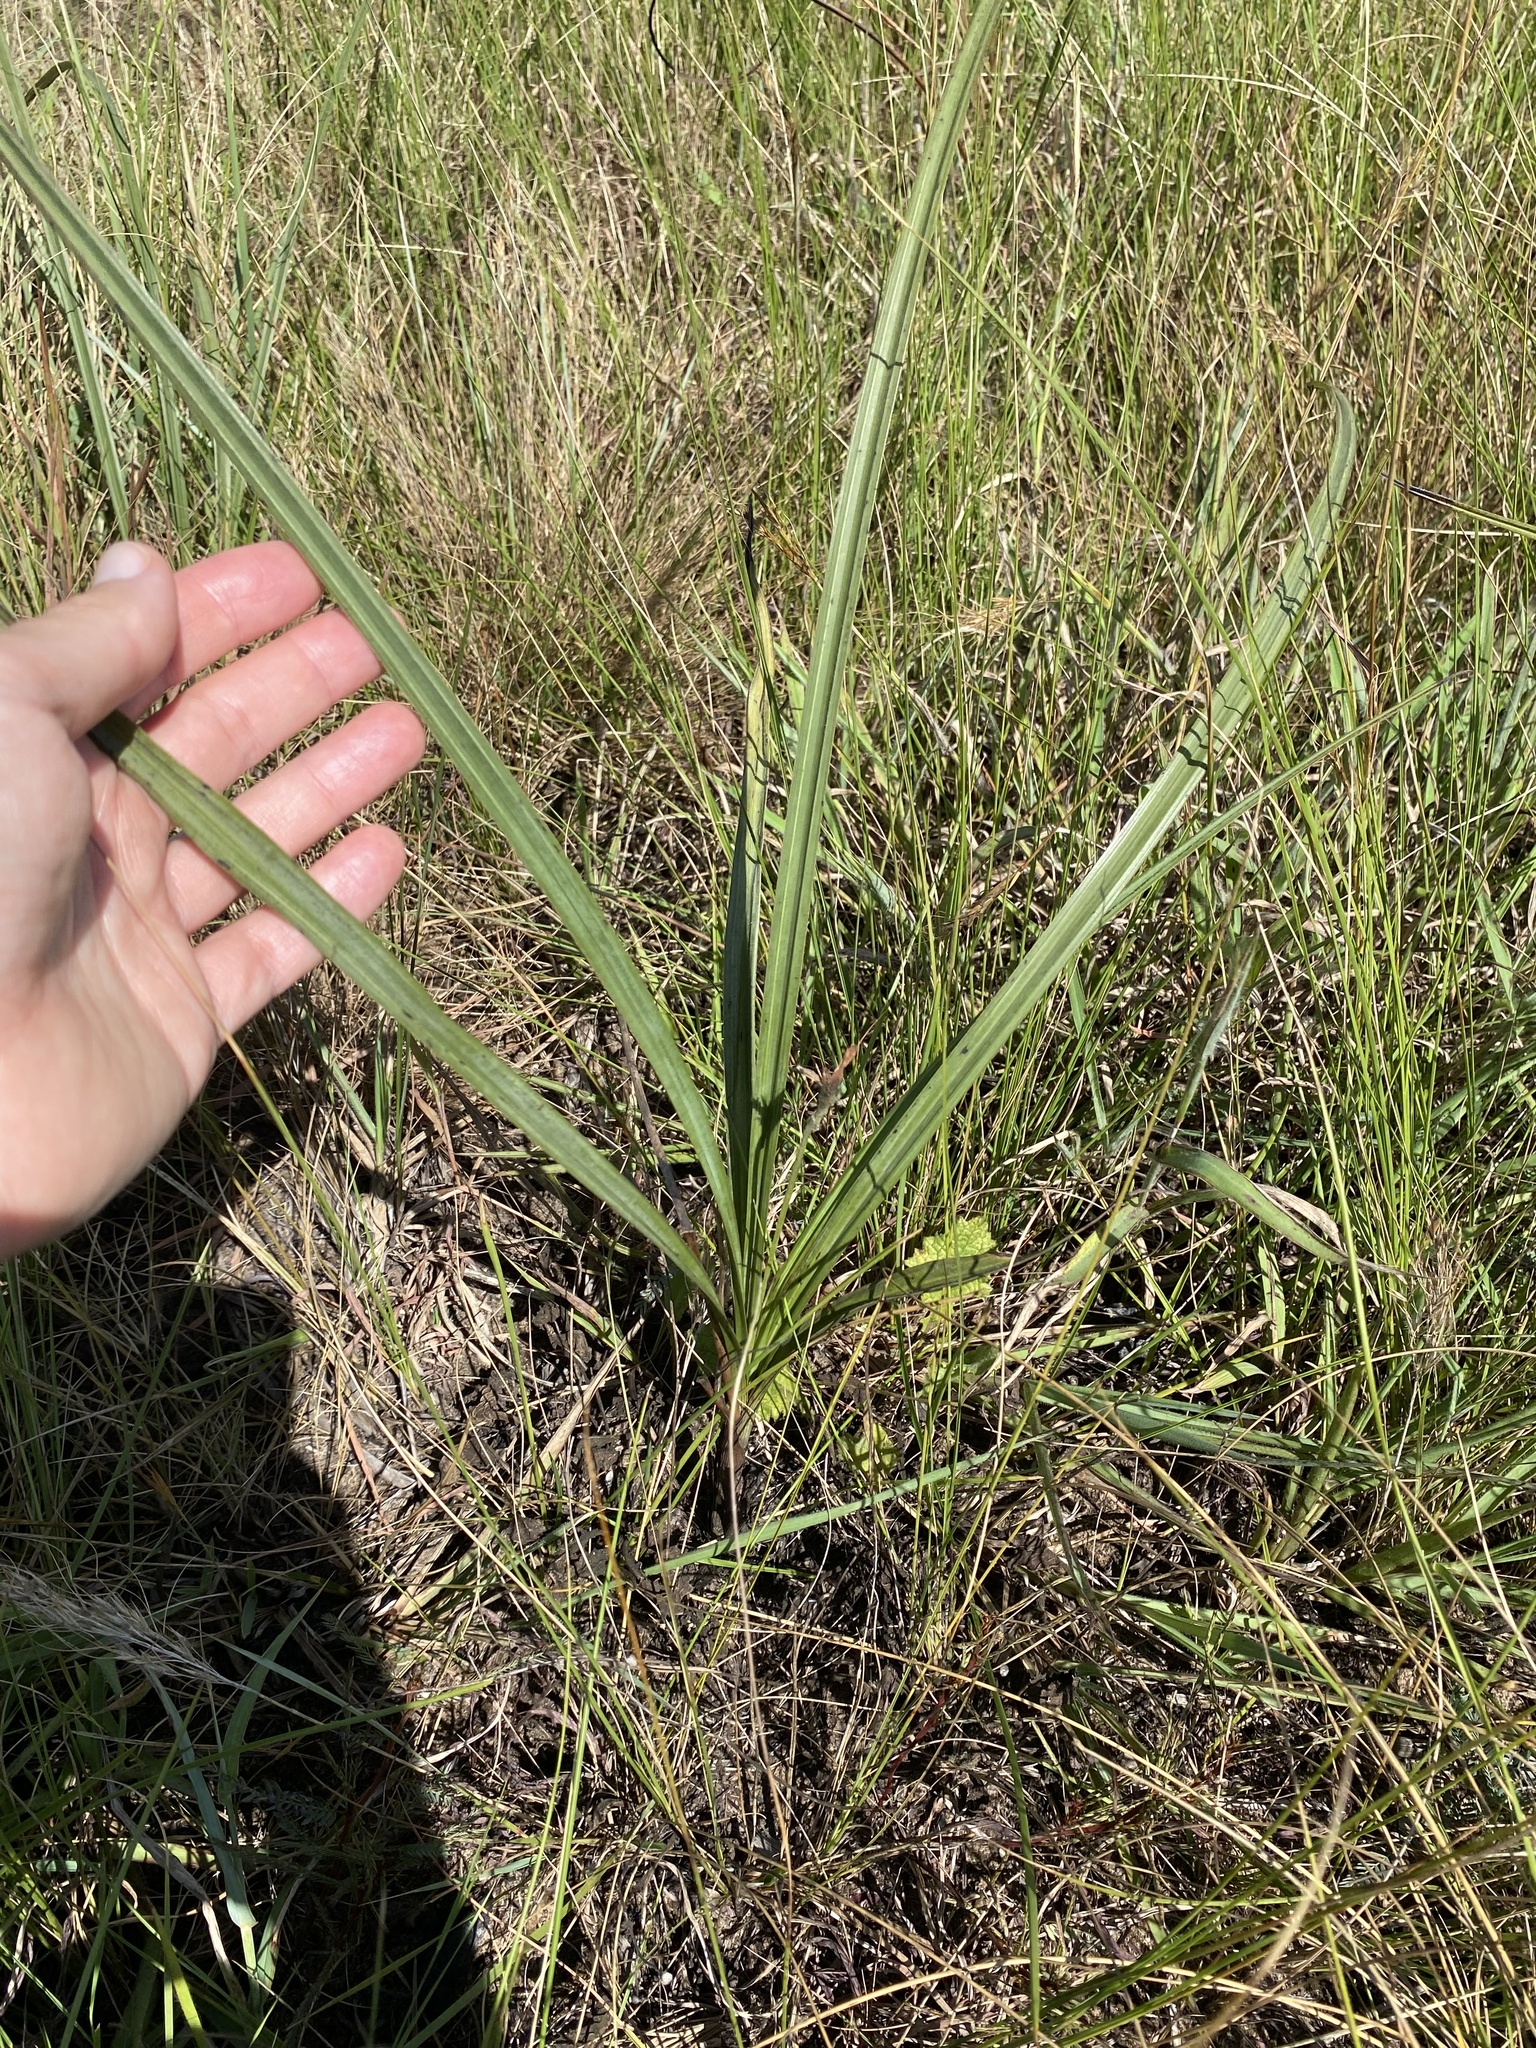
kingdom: Plantae
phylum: Tracheophyta
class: Liliopsida
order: Asparagales
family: Hypoxidaceae
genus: Hypoxis
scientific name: Hypoxis rigidula
